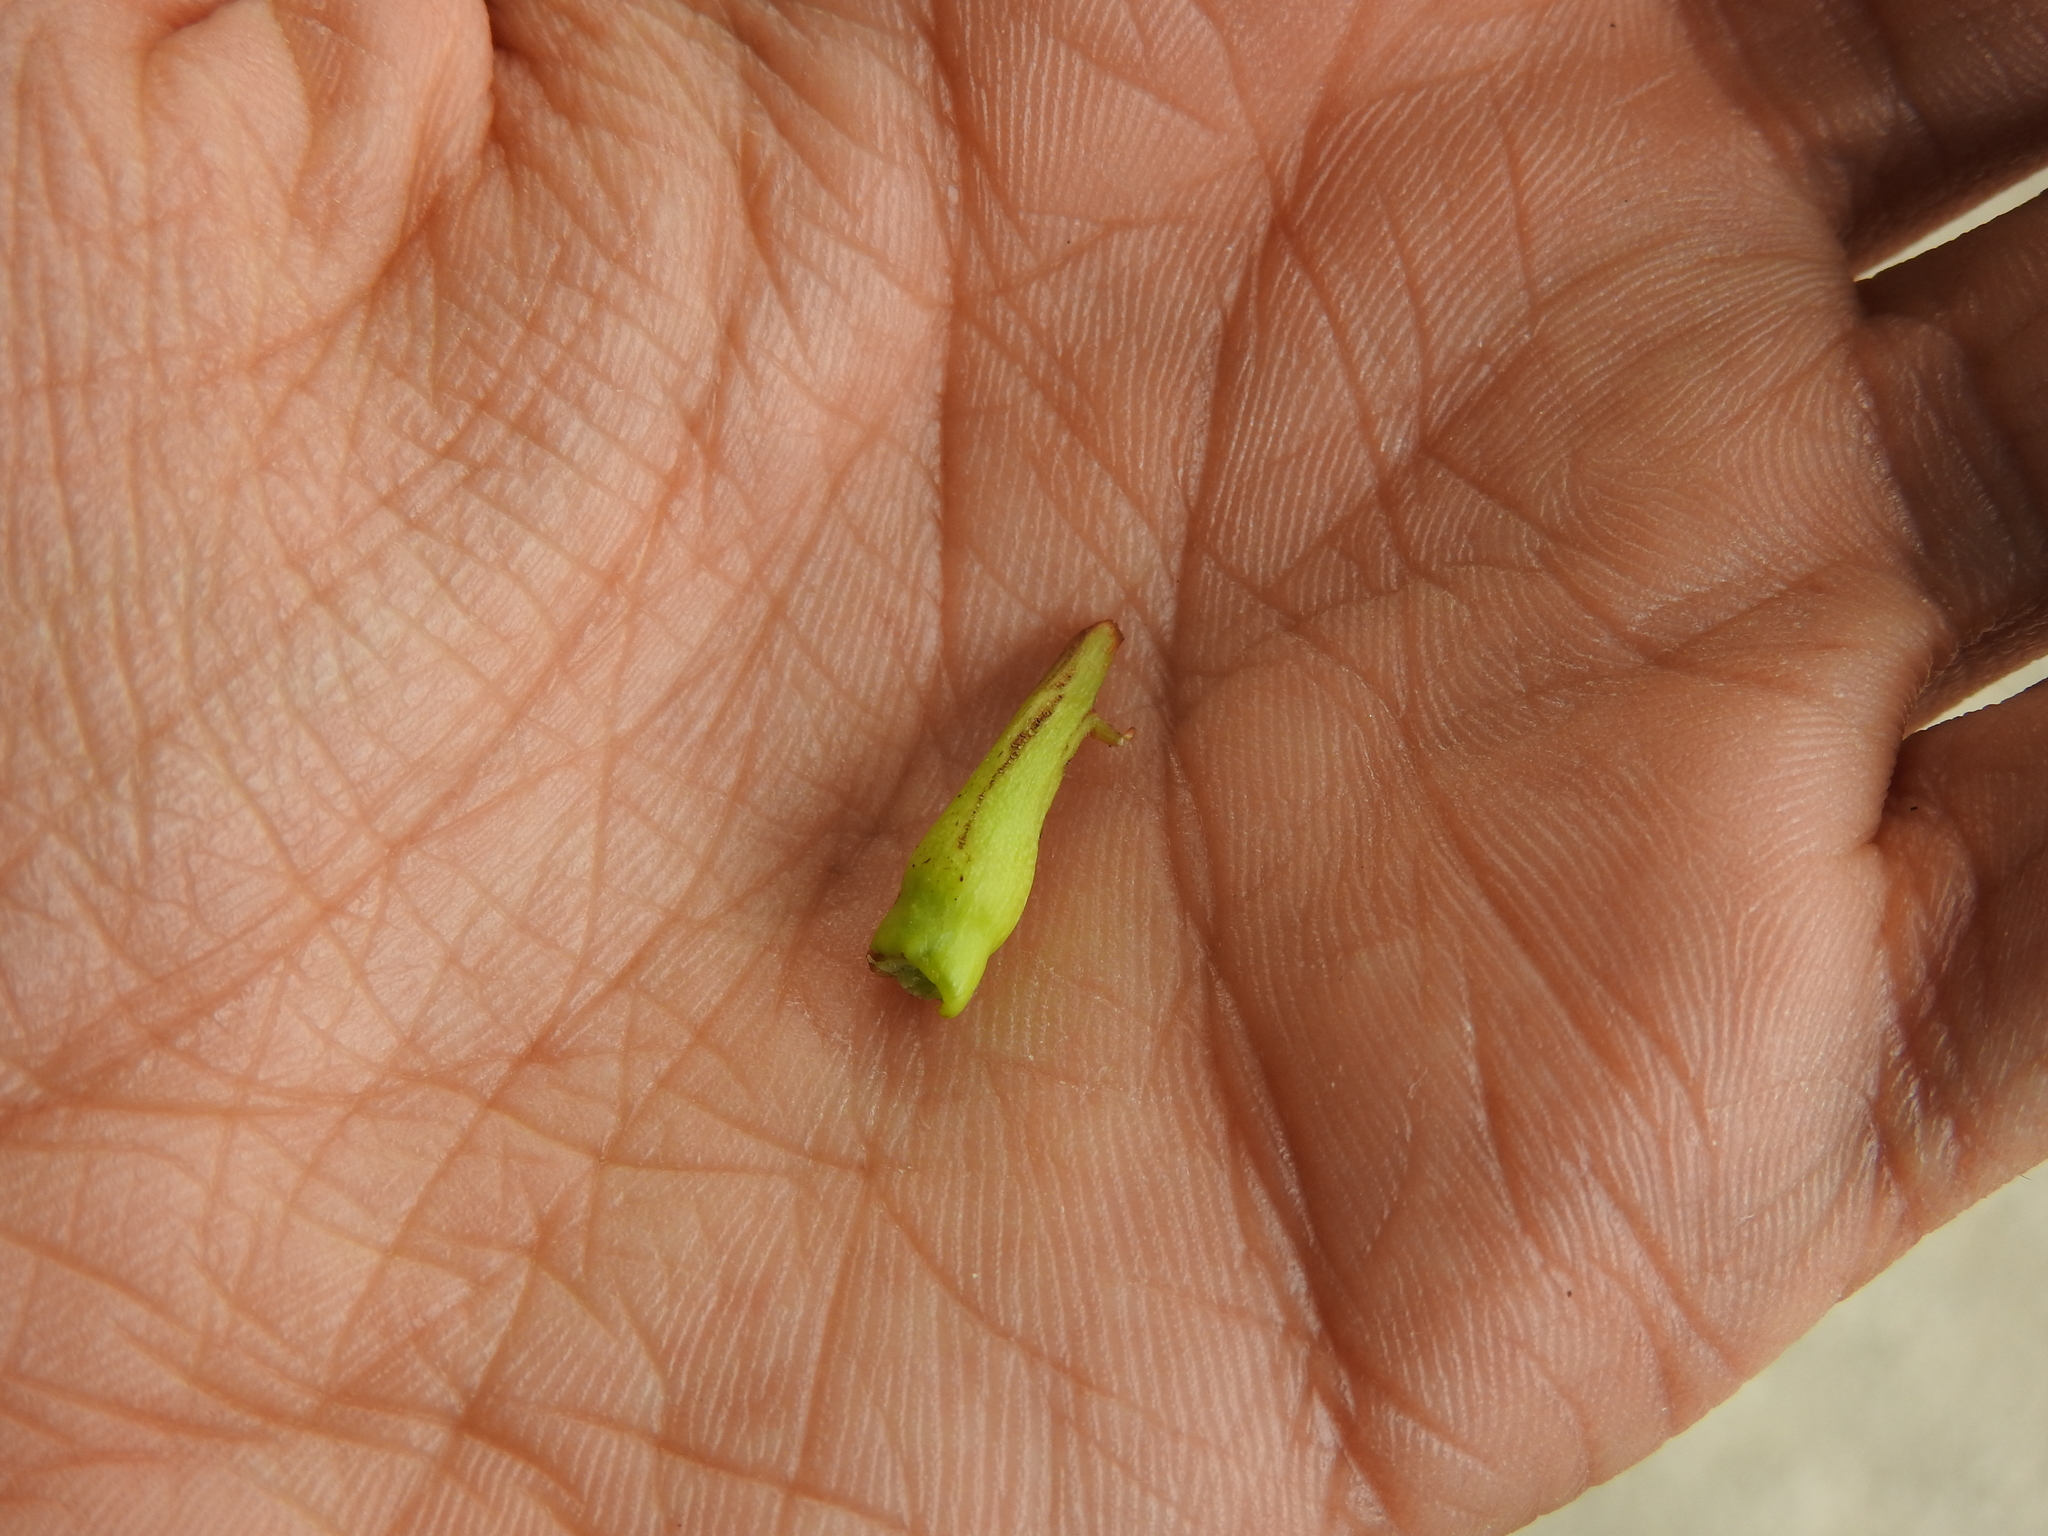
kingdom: Animalia
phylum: Arthropoda
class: Insecta
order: Hymenoptera
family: Cynipidae
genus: Andricus
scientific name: Andricus aries
